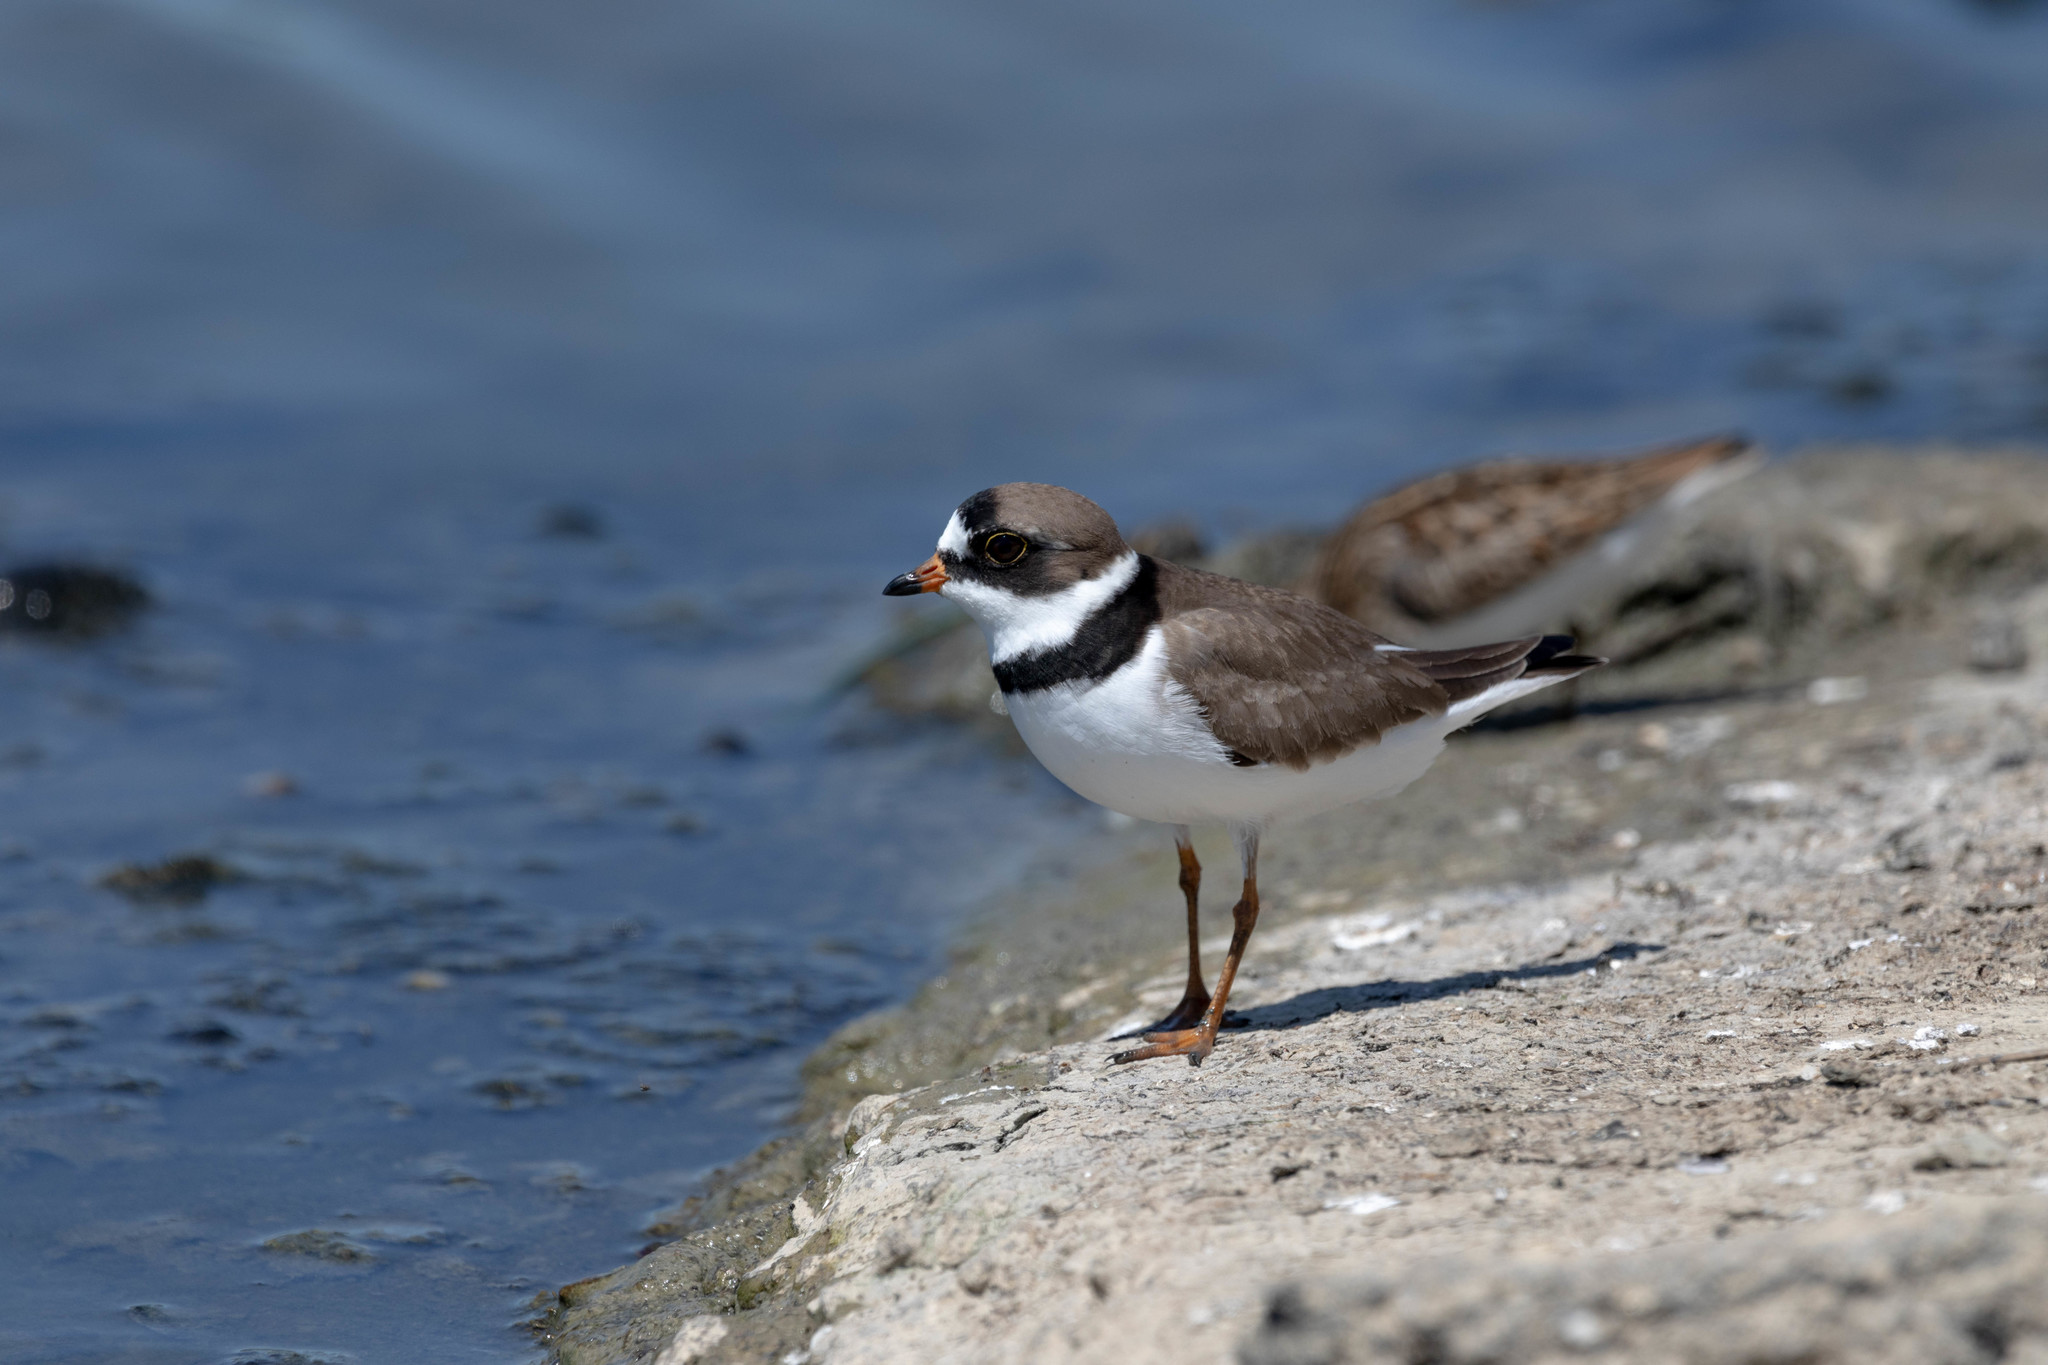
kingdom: Animalia
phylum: Chordata
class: Aves
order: Charadriiformes
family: Charadriidae
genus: Charadrius
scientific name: Charadrius semipalmatus
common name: Semipalmated plover
